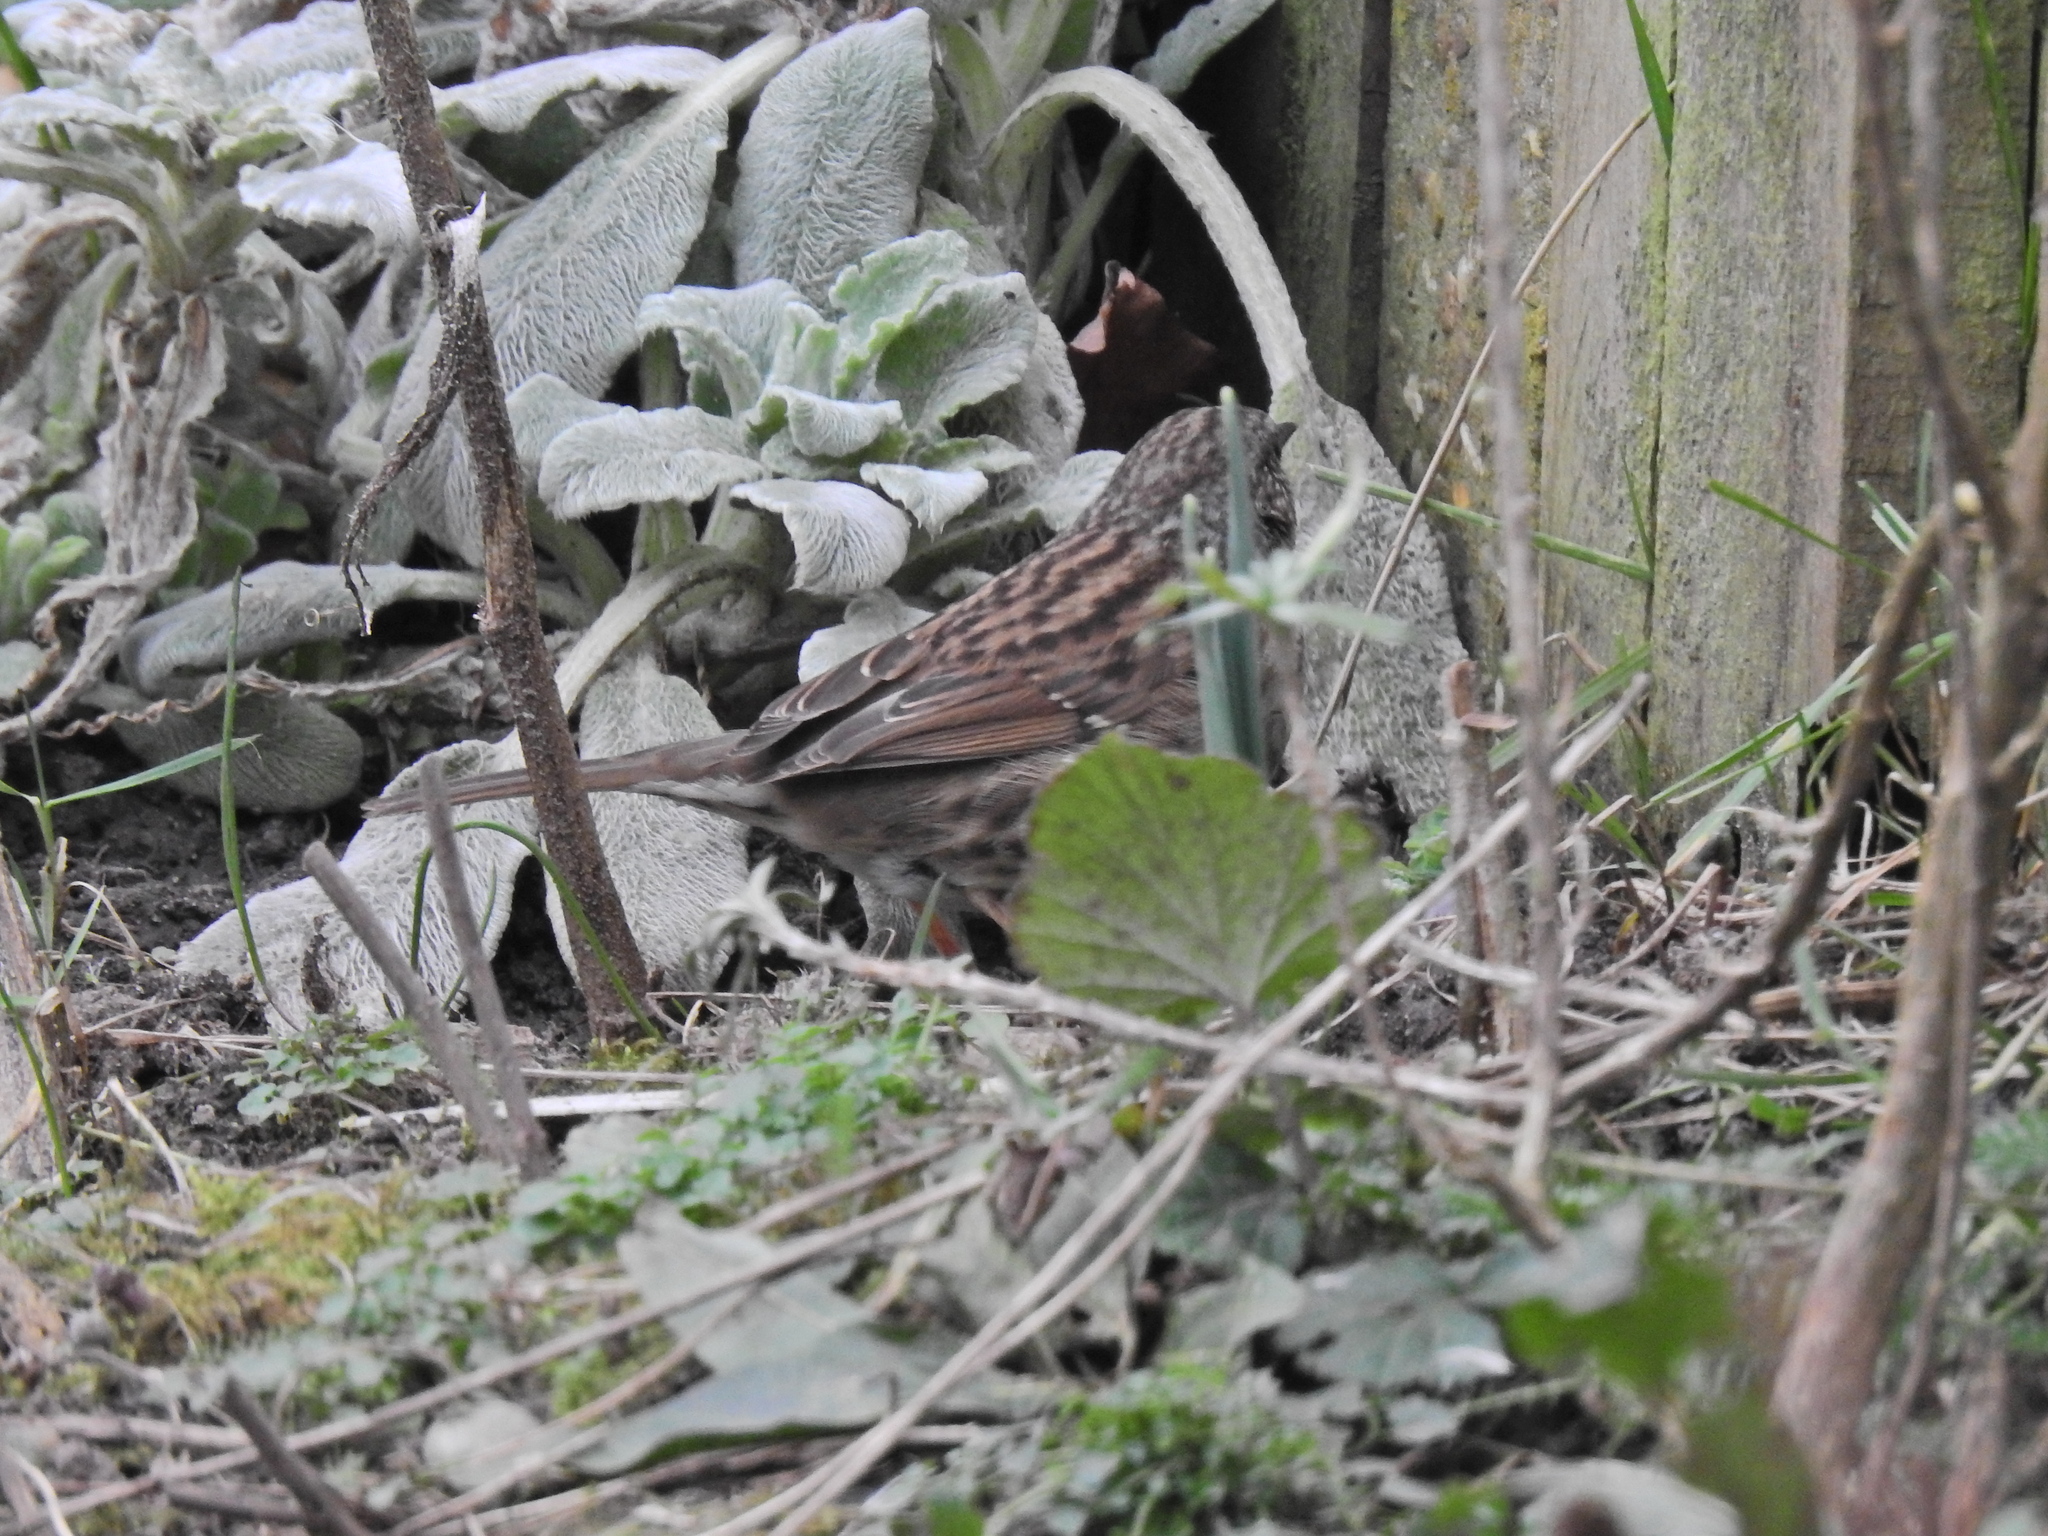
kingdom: Animalia
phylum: Chordata
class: Aves
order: Passeriformes
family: Prunellidae
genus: Prunella
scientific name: Prunella modularis
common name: Dunnock
